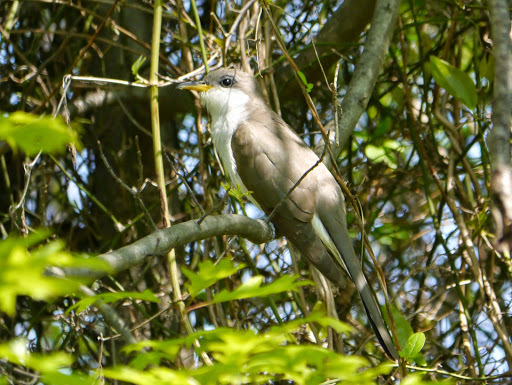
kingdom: Animalia
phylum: Chordata
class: Aves
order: Cuculiformes
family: Cuculidae
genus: Coccyzus
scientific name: Coccyzus americanus
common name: Yellow-billed cuckoo
